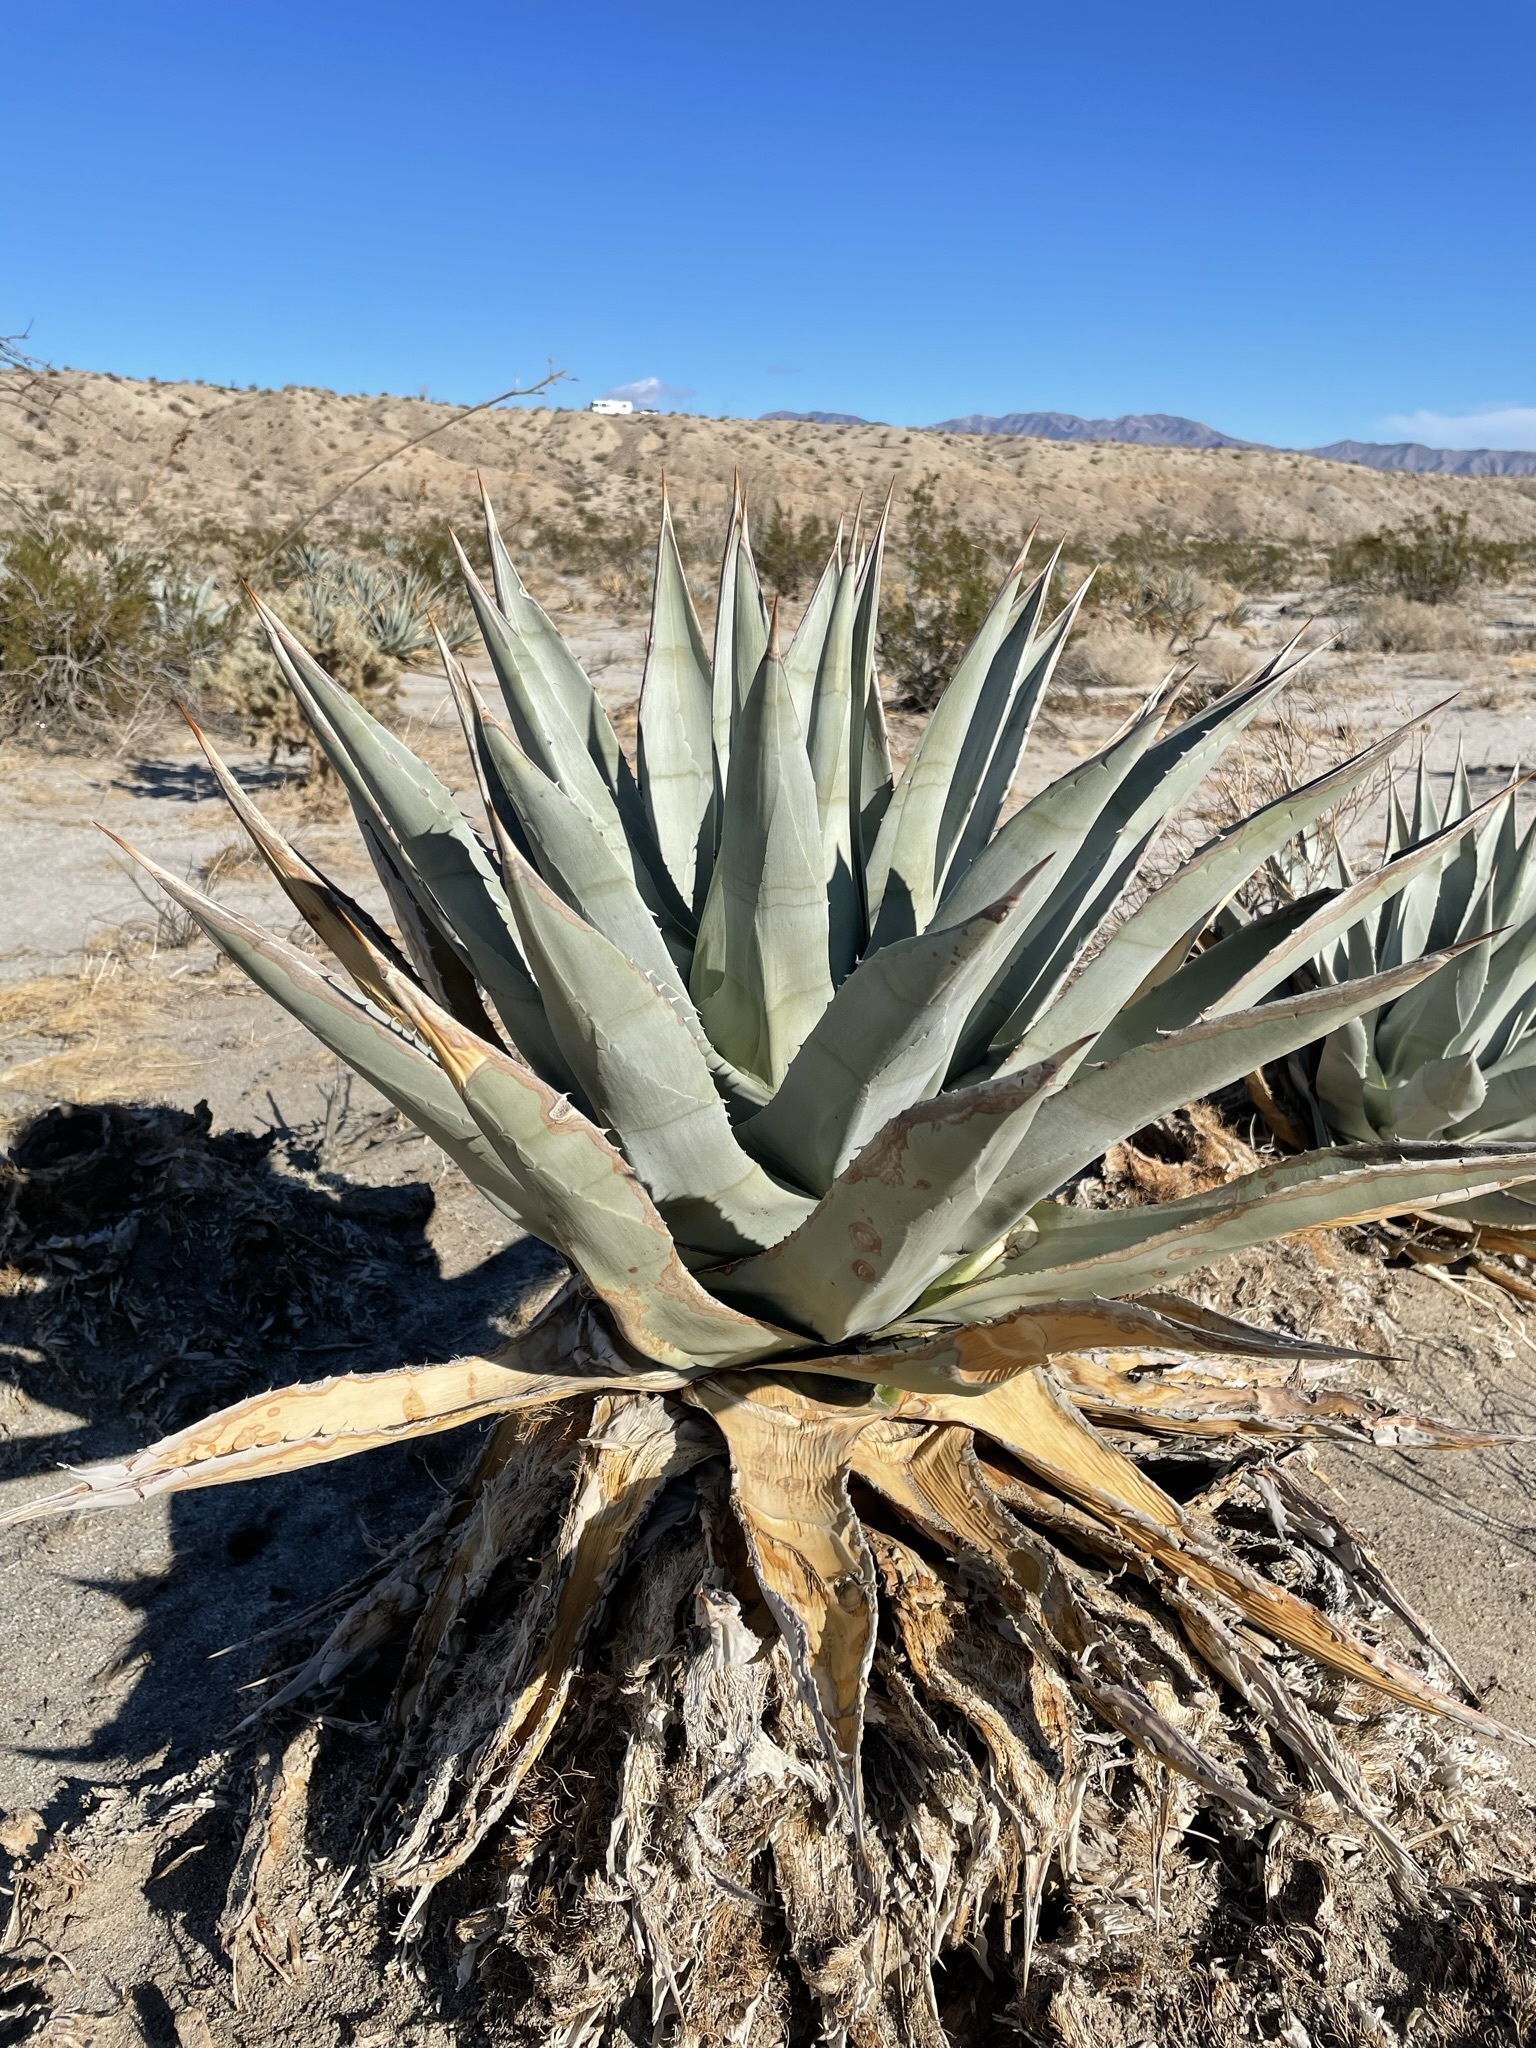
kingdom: Plantae
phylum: Tracheophyta
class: Liliopsida
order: Asparagales
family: Asparagaceae
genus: Agave
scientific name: Agave deserti
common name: Desert agave
